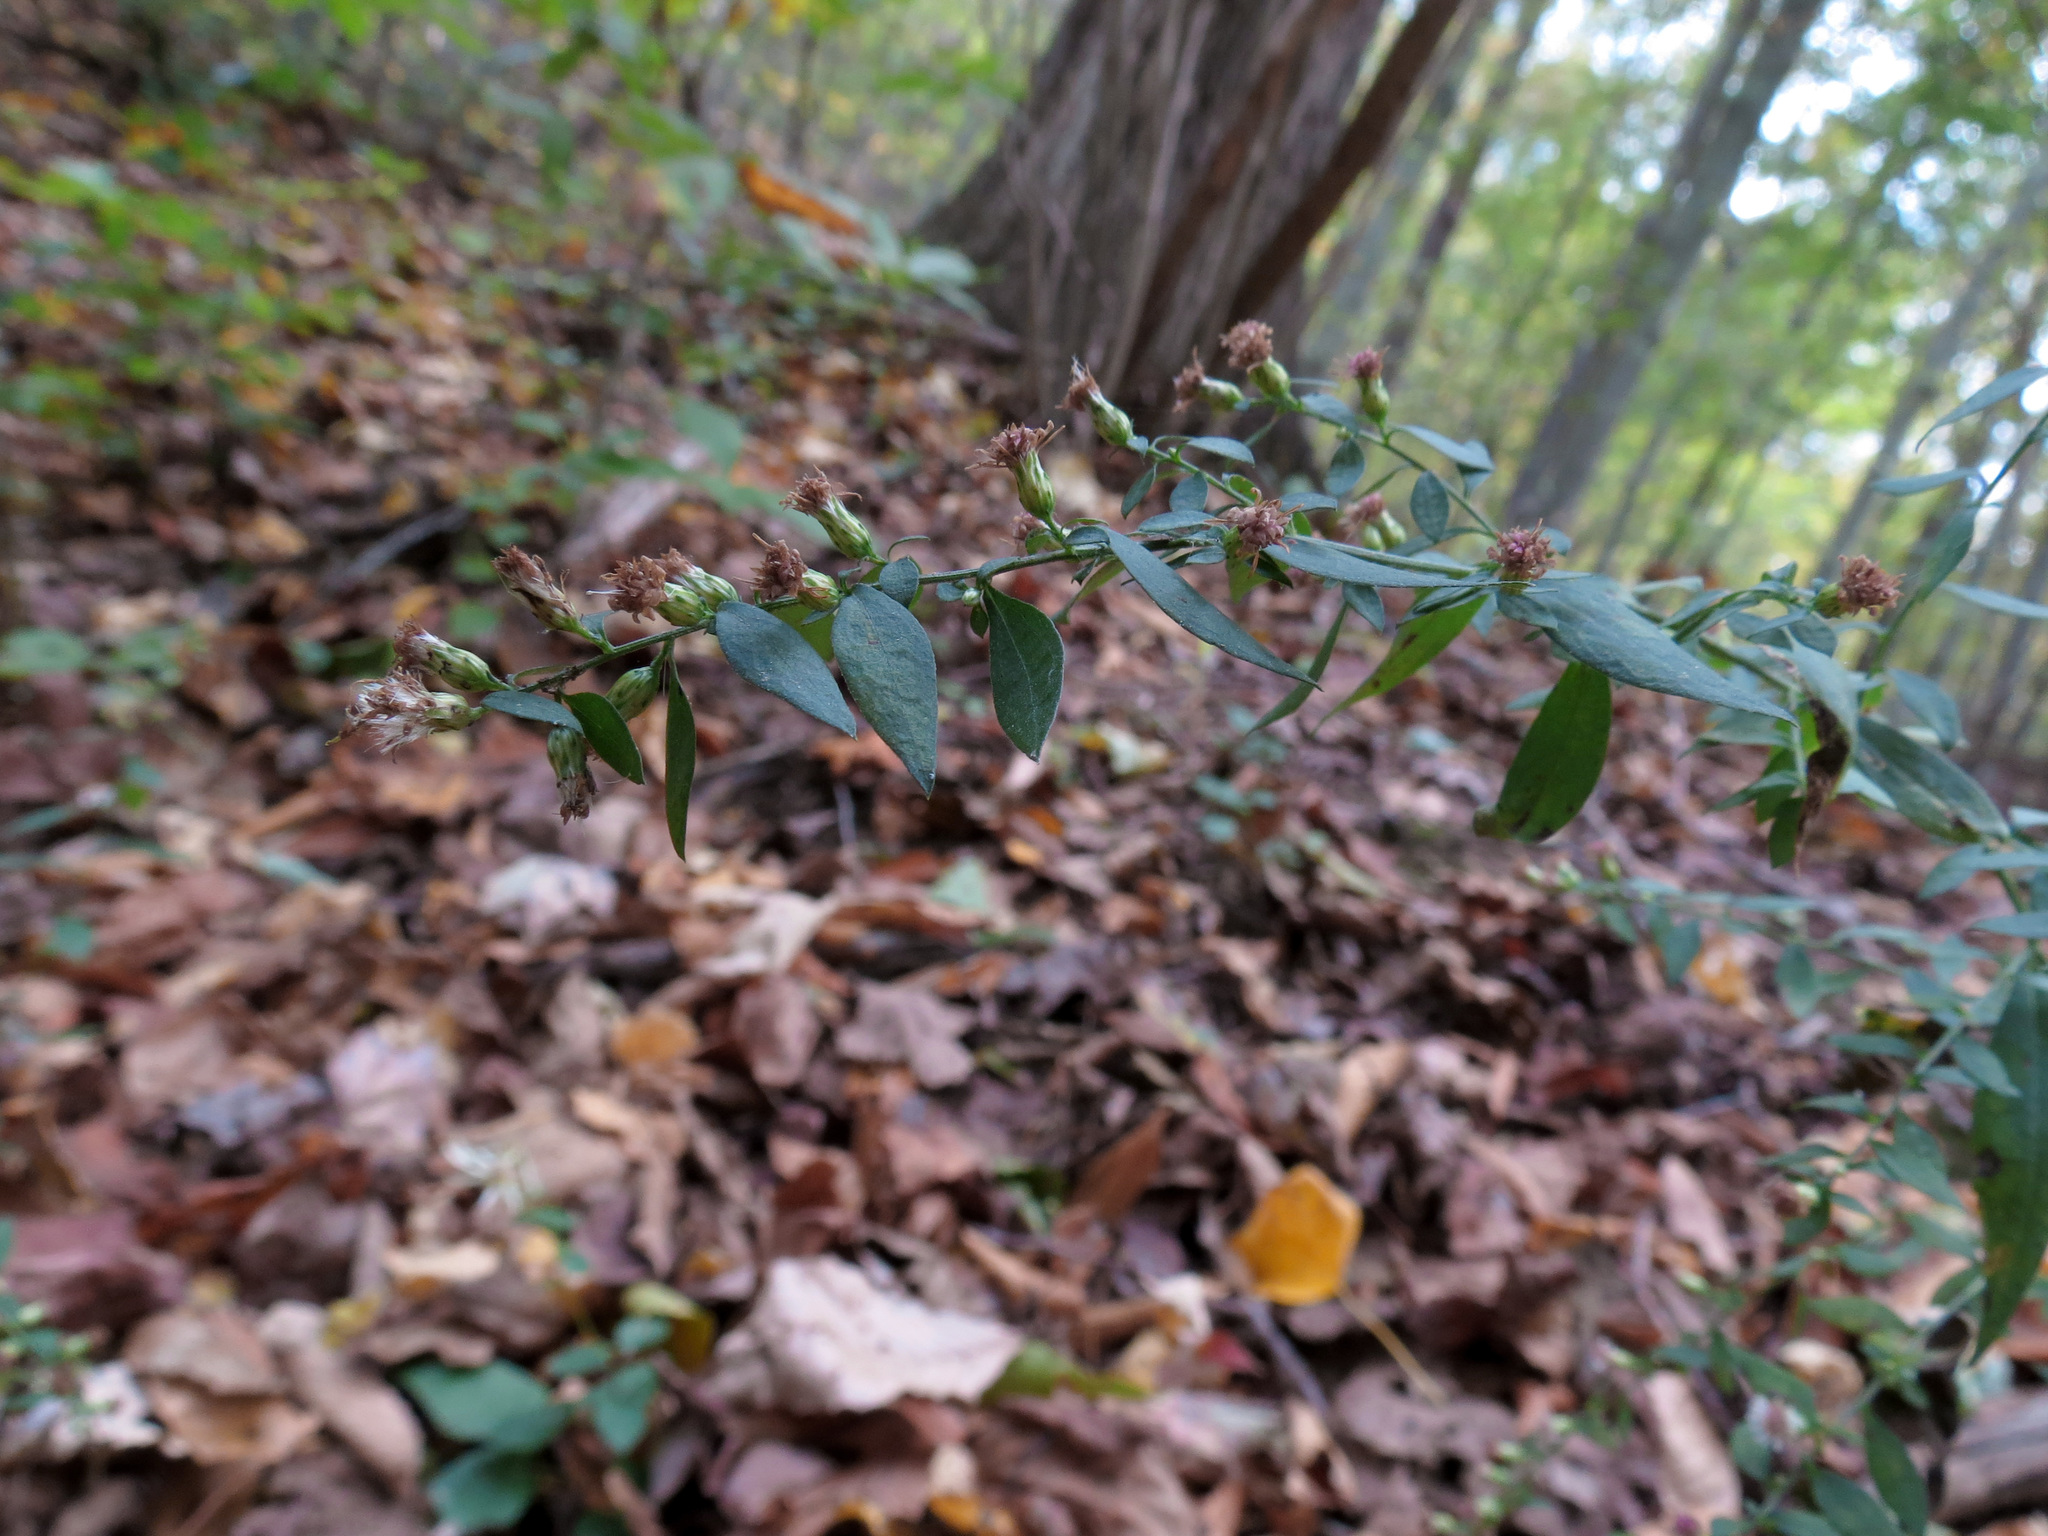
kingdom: Plantae
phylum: Tracheophyta
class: Magnoliopsida
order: Asterales
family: Asteraceae
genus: Solidago
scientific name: Solidago bicolor
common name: Silverrod
